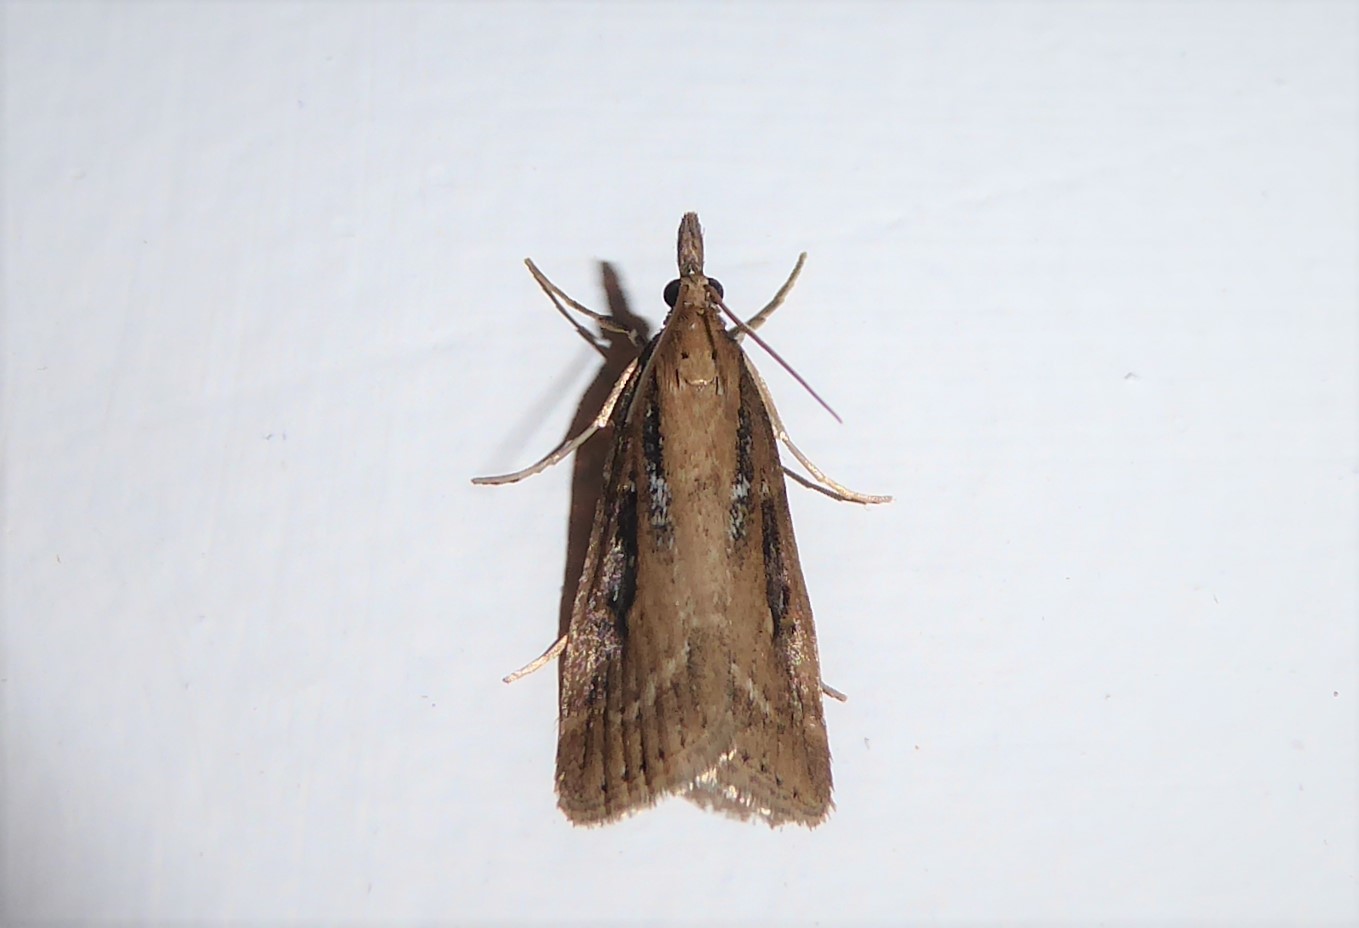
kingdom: Animalia
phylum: Arthropoda
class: Insecta
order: Lepidoptera
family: Crambidae
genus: Eudonia
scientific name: Eudonia octophora
